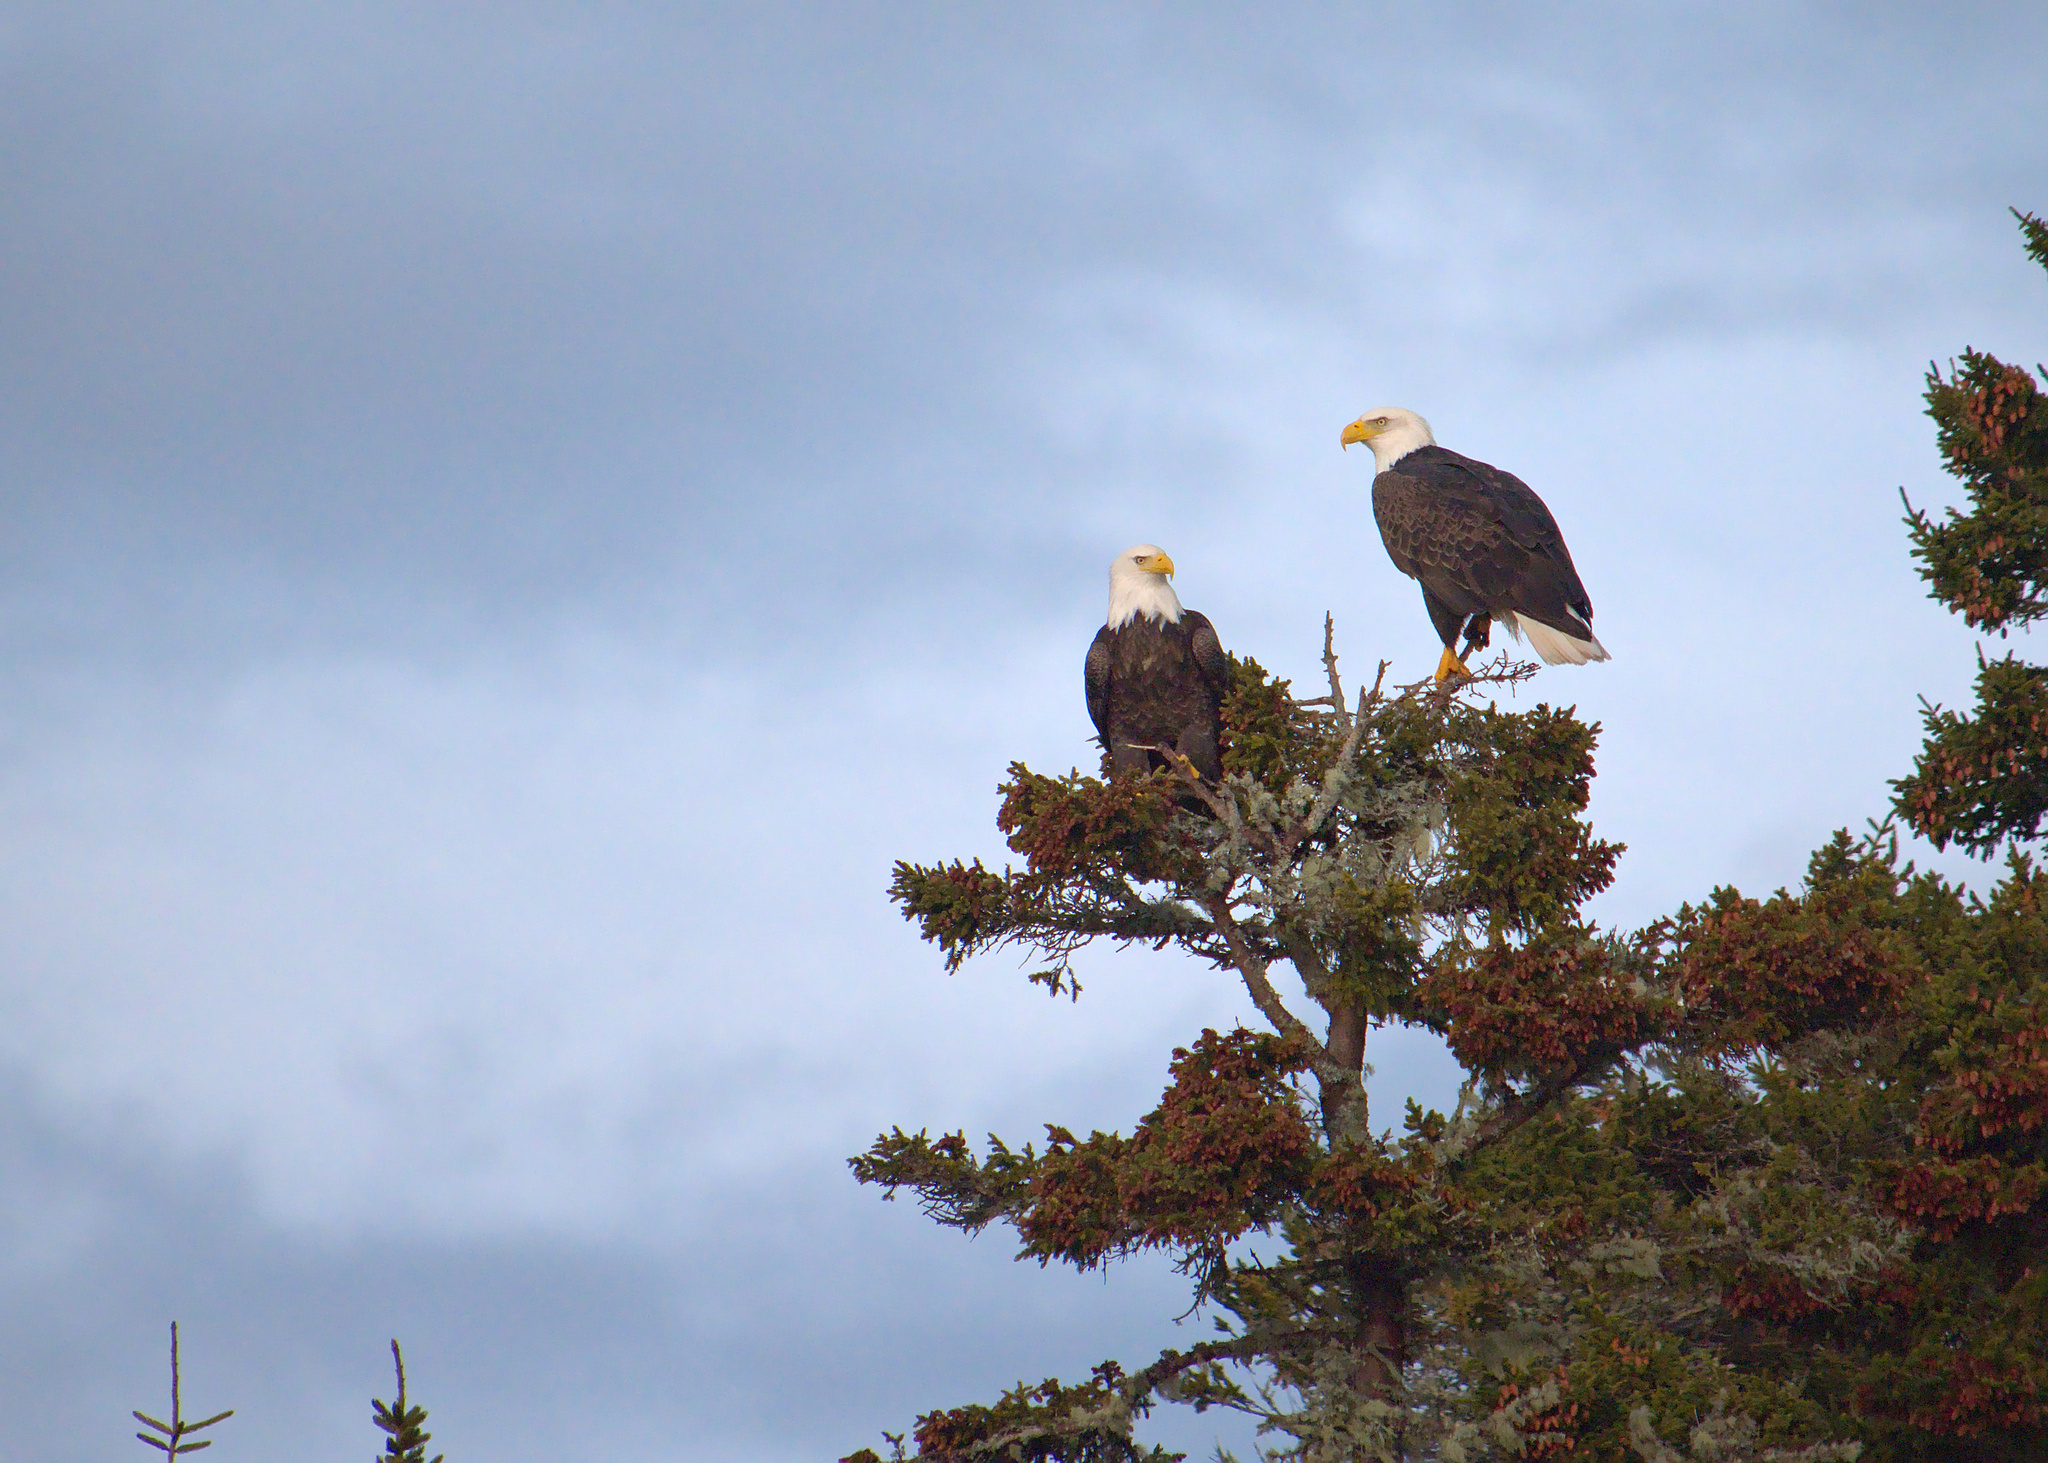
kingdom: Animalia
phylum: Chordata
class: Aves
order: Accipitriformes
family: Accipitridae
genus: Haliaeetus
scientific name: Haliaeetus leucocephalus
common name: Bald eagle
